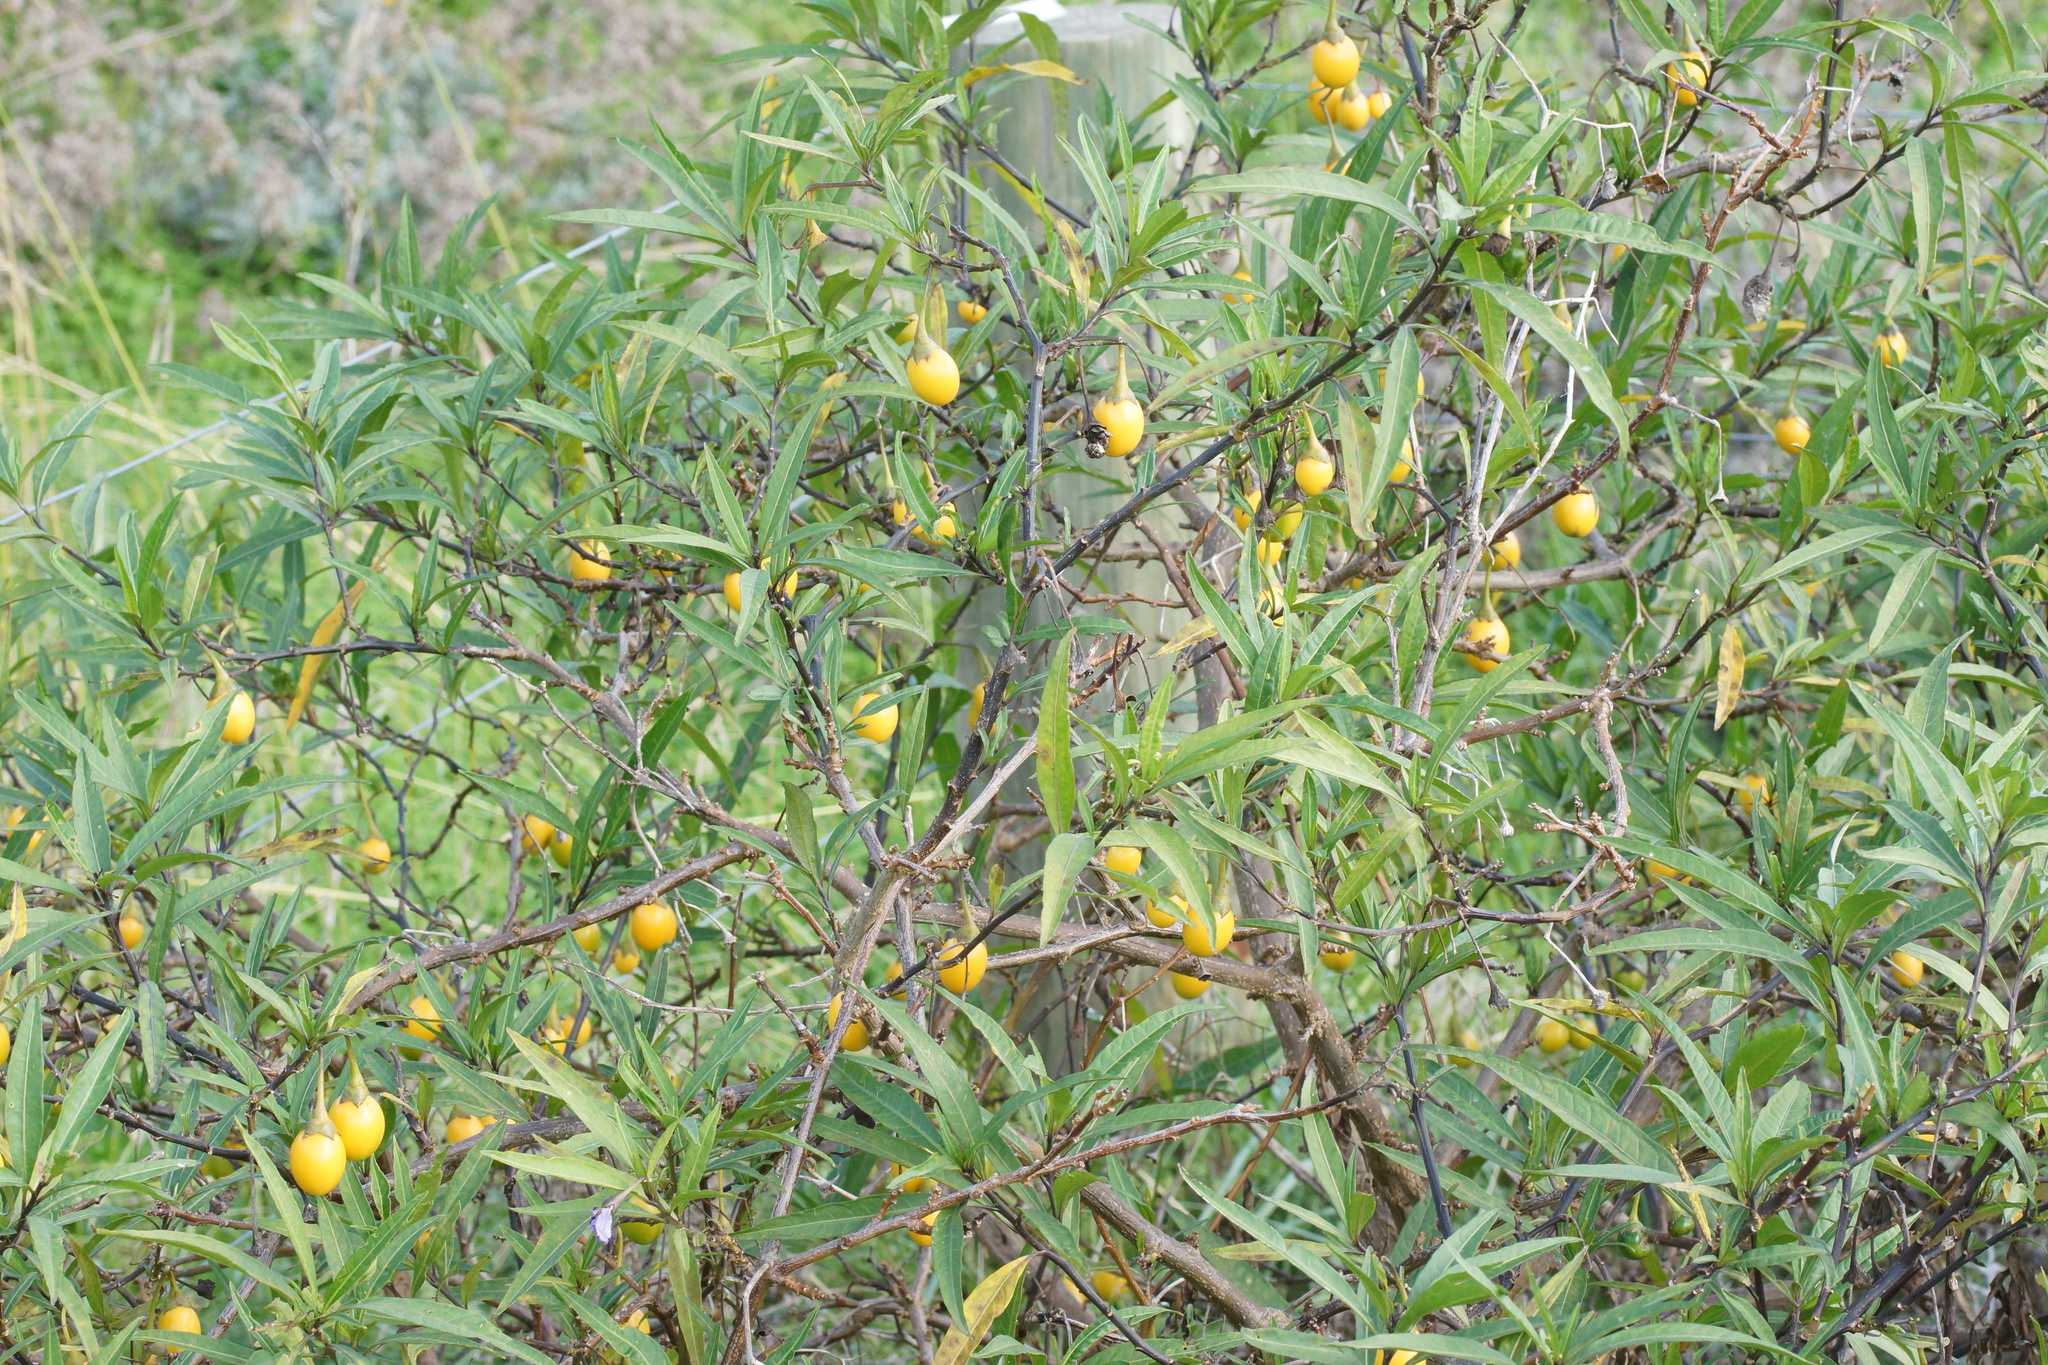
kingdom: Plantae
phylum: Tracheophyta
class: Magnoliopsida
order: Solanales
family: Solanaceae
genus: Solanum
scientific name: Solanum laciniatum
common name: Kangaroo-apple
